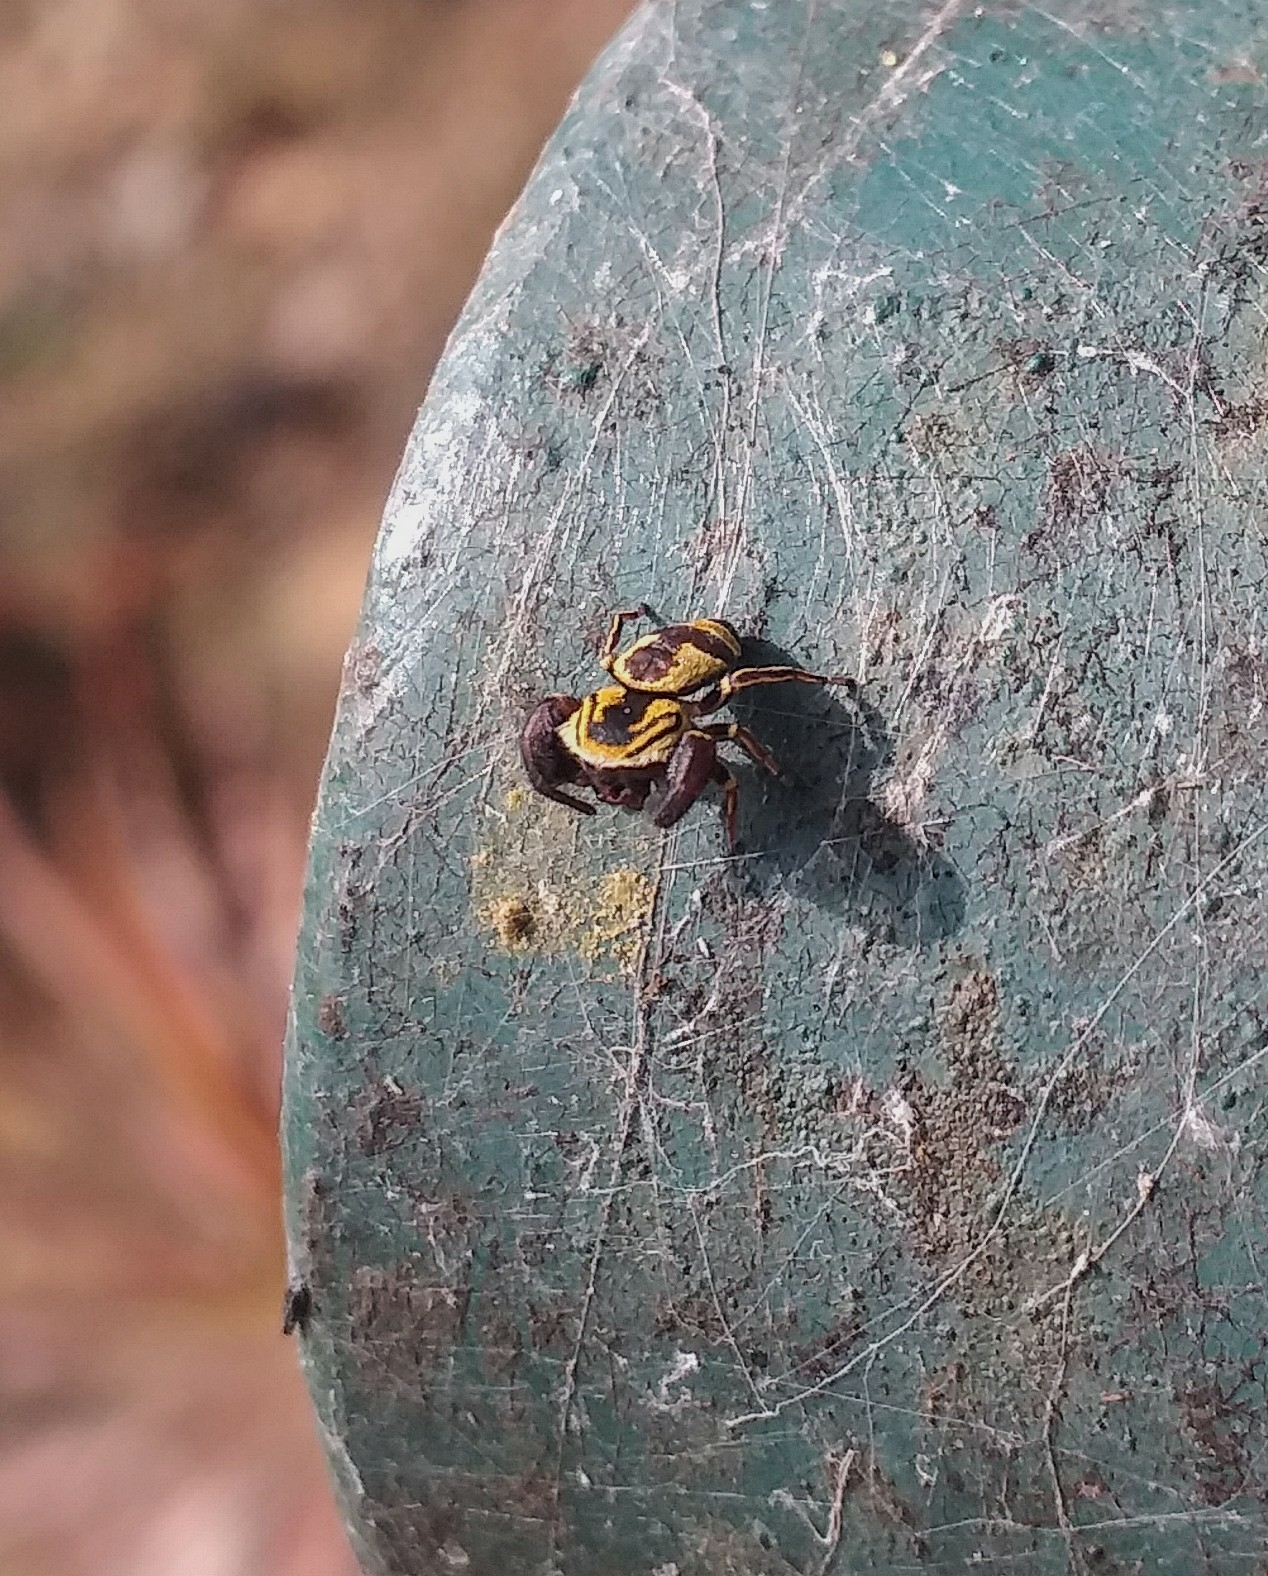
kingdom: Animalia
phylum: Arthropoda
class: Arachnida
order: Araneae
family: Salticidae
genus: Rhene
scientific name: Rhene flavicomans
